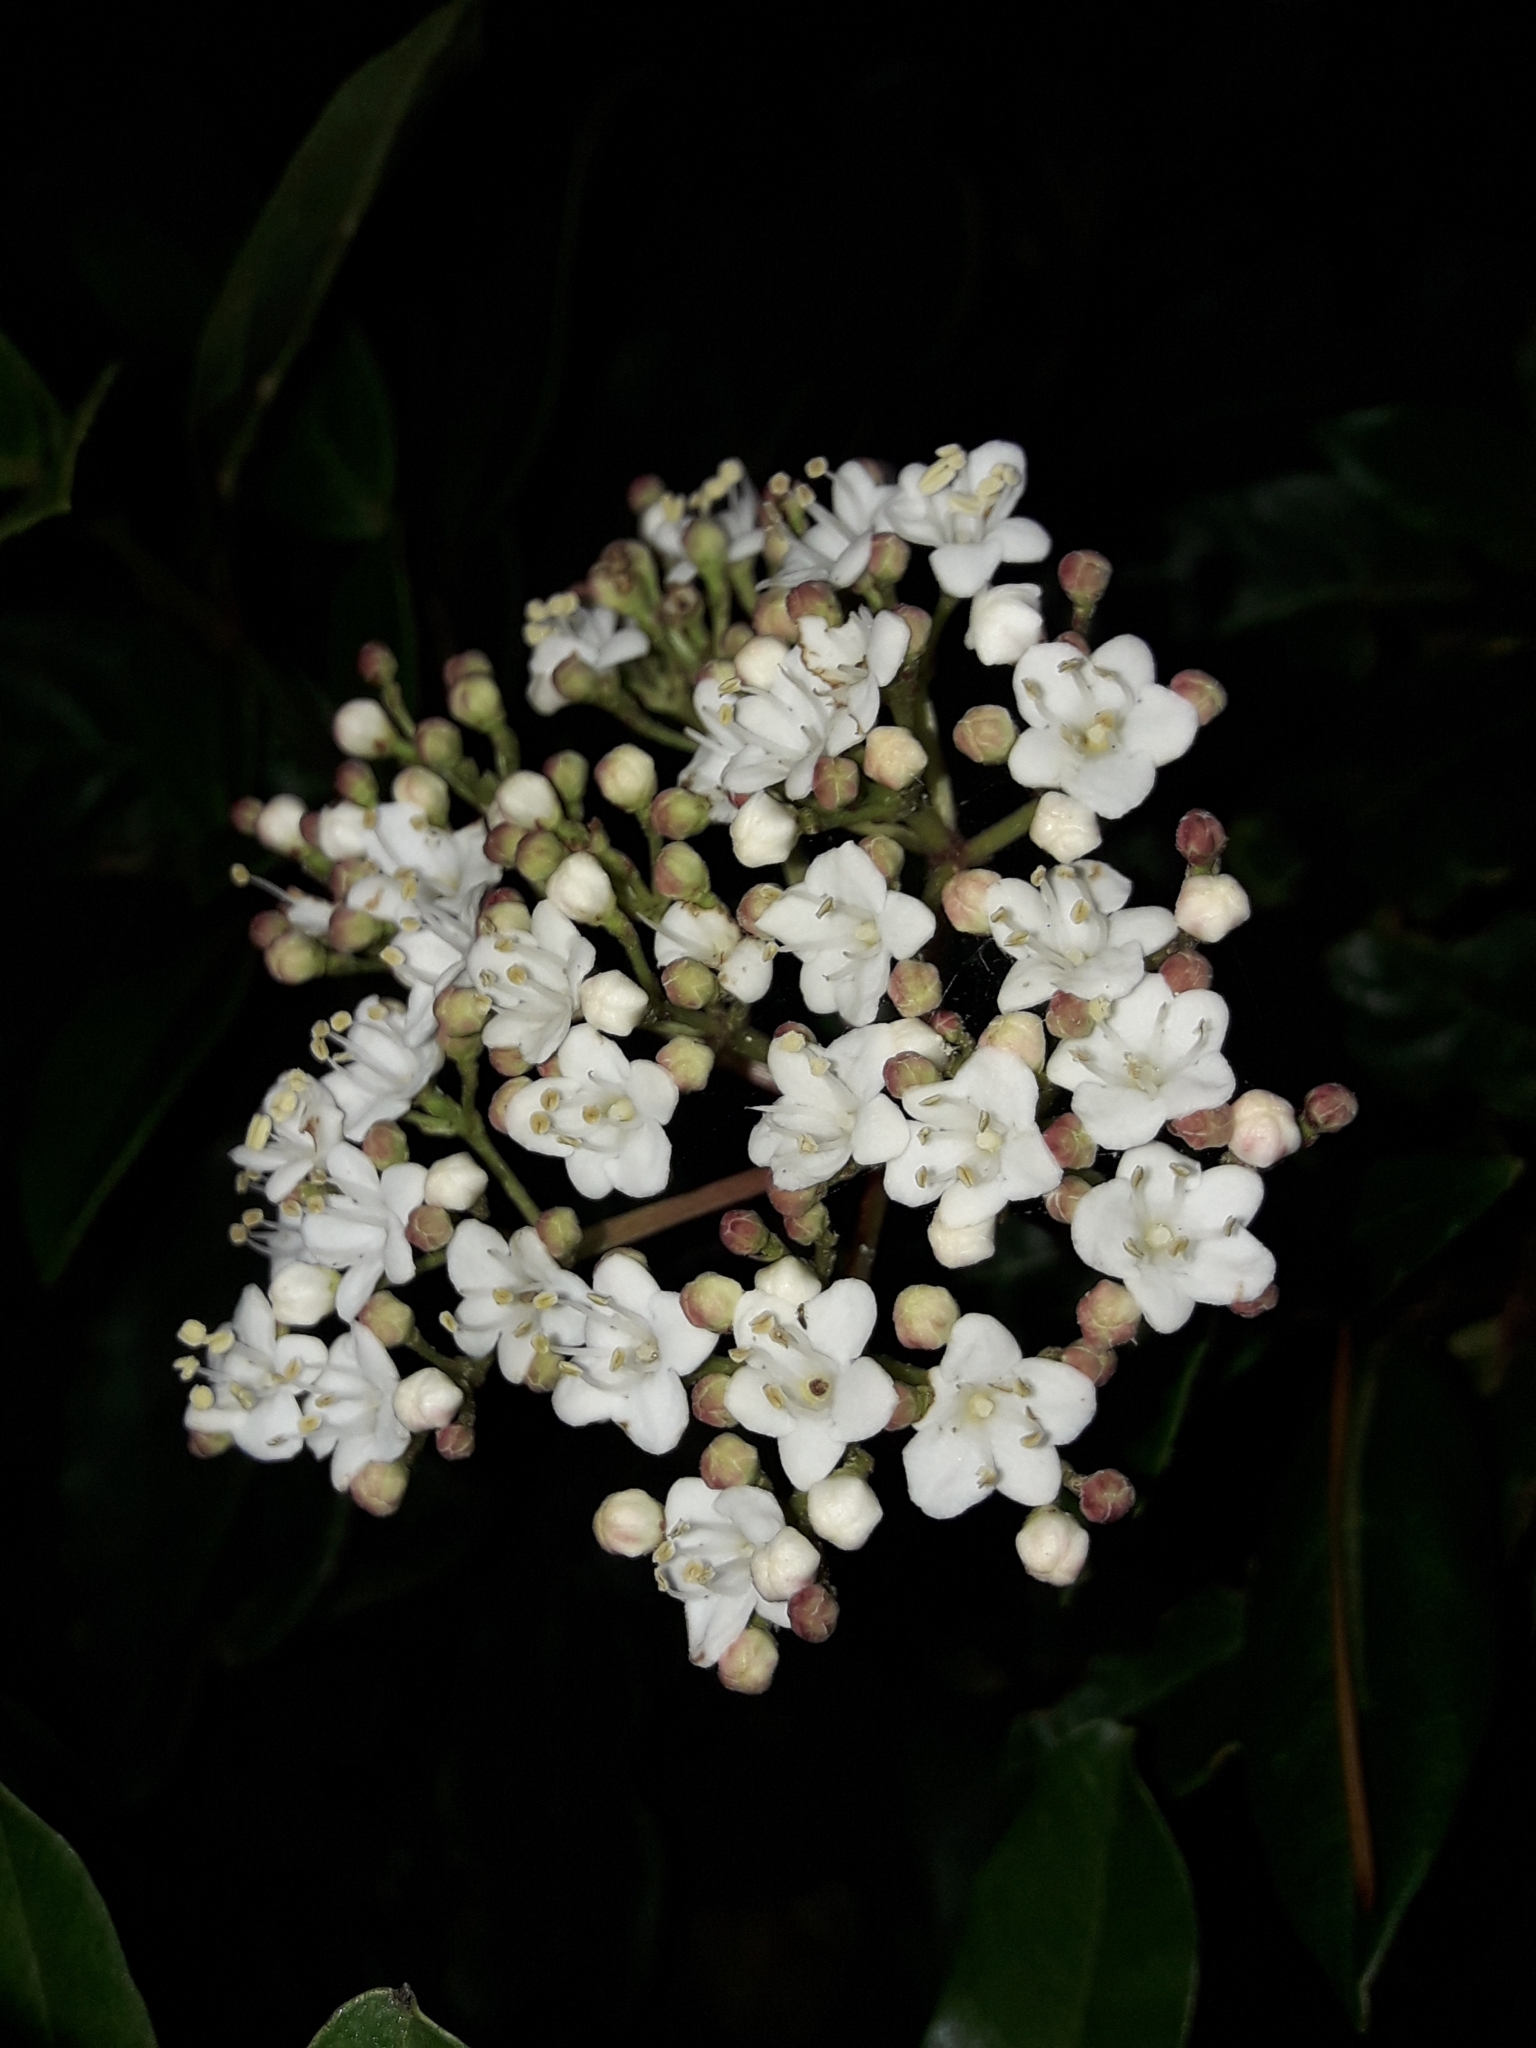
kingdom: Plantae
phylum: Tracheophyta
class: Magnoliopsida
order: Dipsacales
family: Viburnaceae
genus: Viburnum
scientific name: Viburnum tinus
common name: Laurustinus
